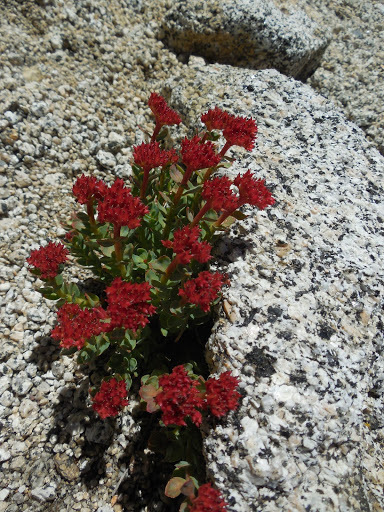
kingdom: Plantae
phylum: Tracheophyta
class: Magnoliopsida
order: Saxifragales
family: Crassulaceae
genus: Rhodiola
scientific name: Rhodiola integrifolia
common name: Western roseroot
